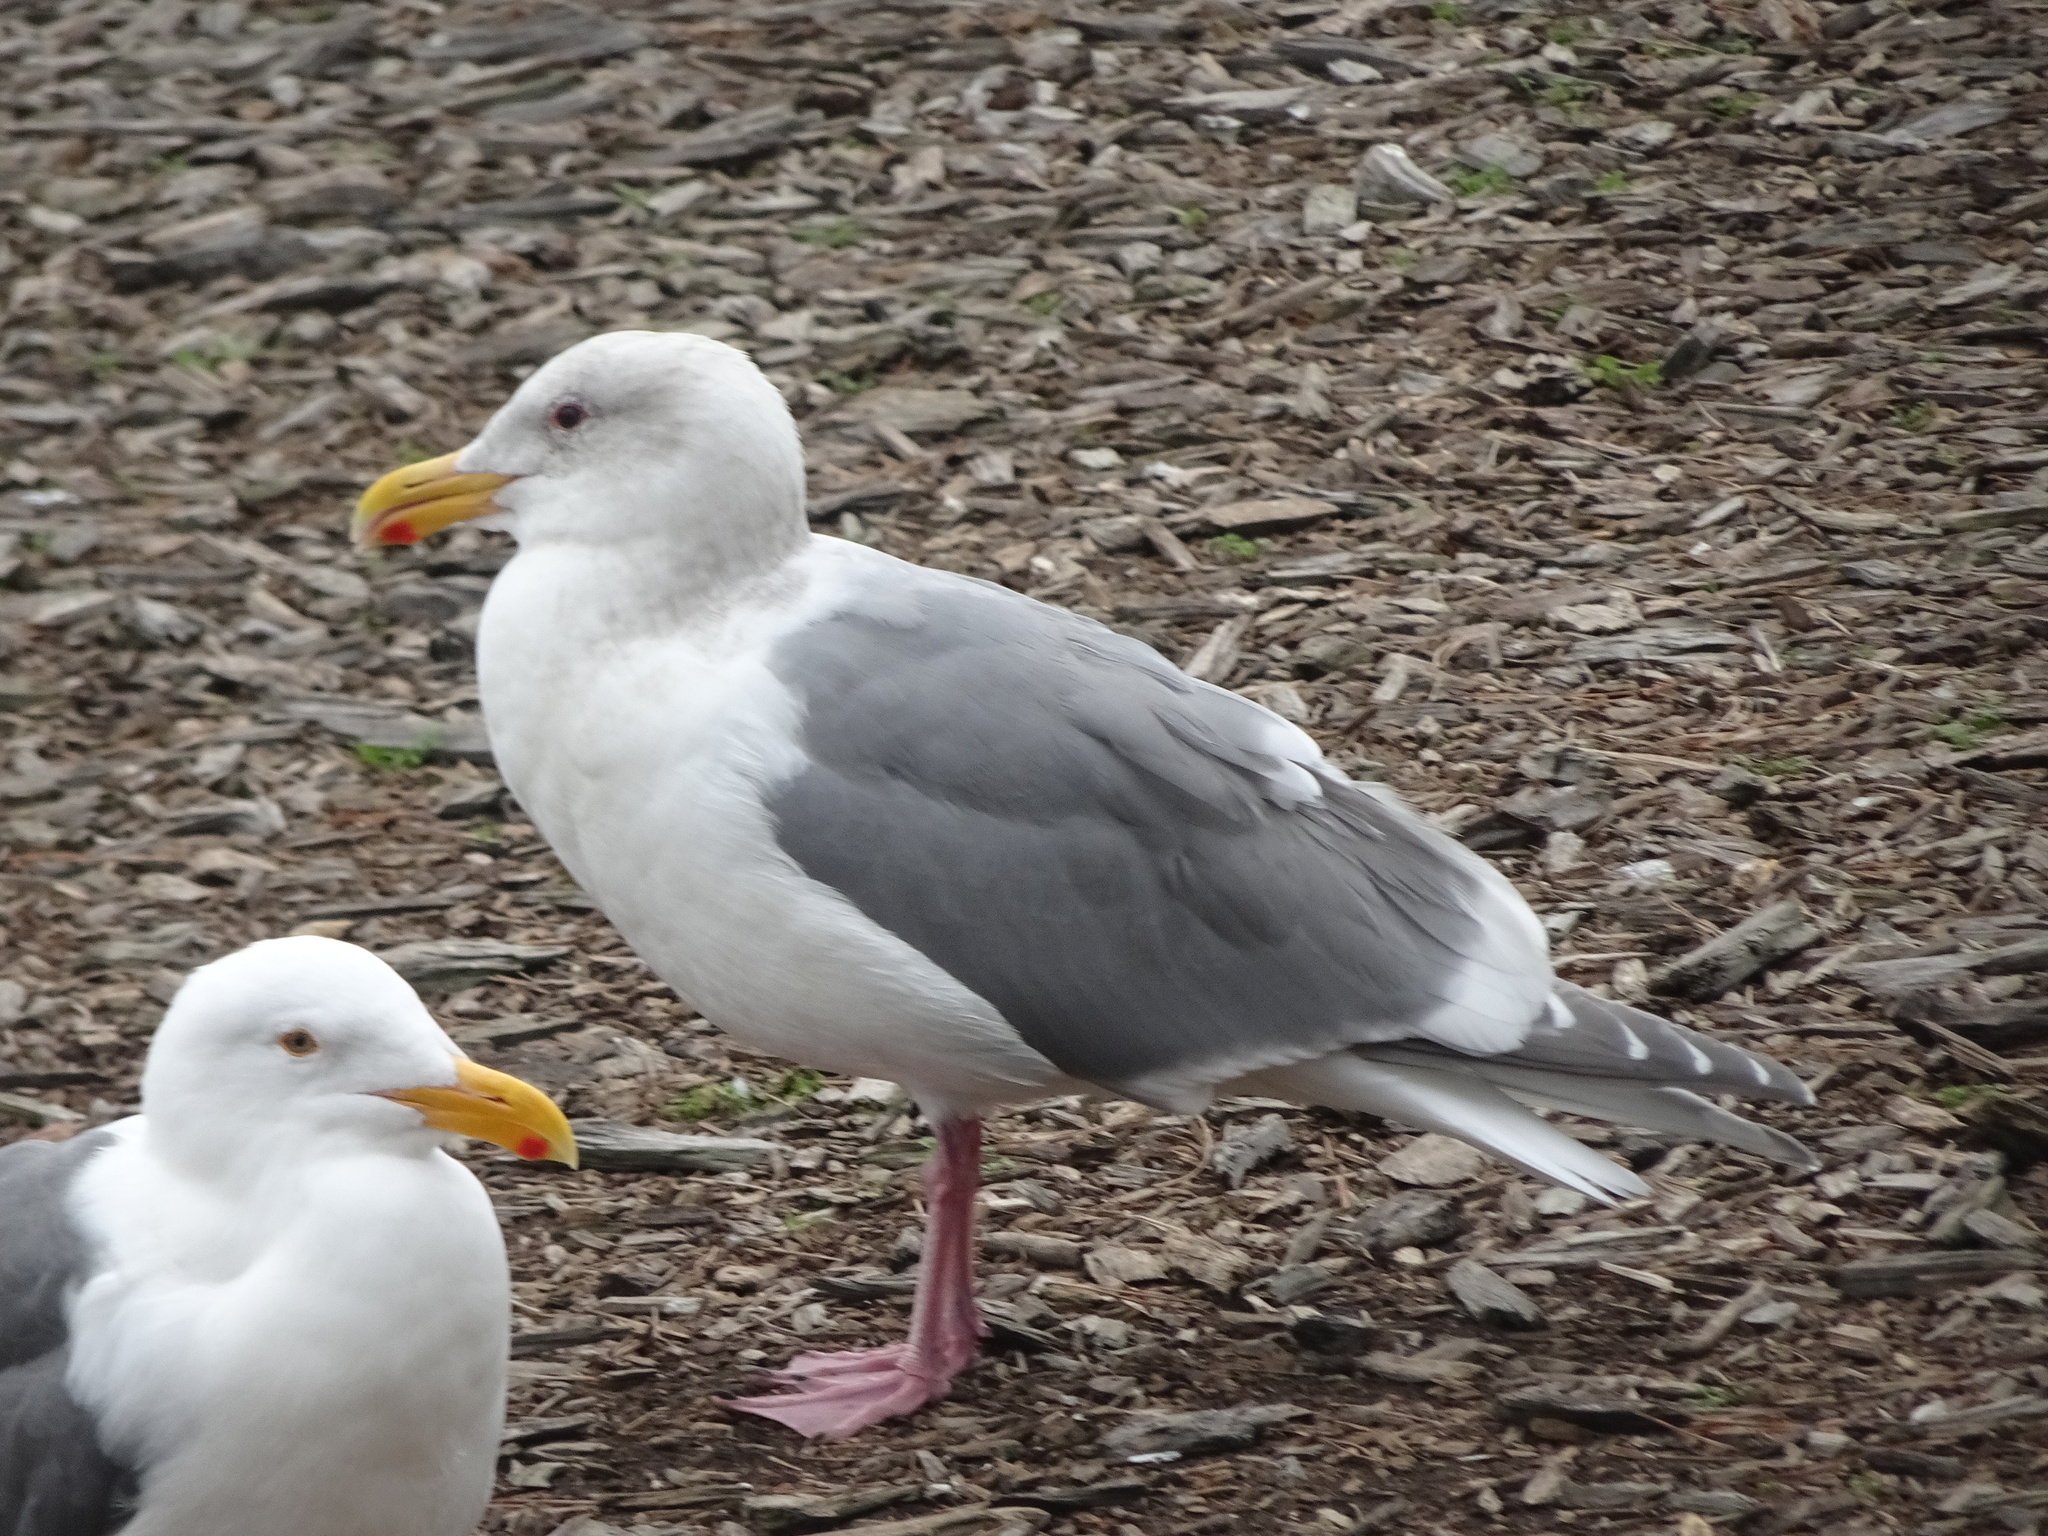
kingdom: Animalia
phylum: Chordata
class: Aves
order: Charadriiformes
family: Laridae
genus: Larus
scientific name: Larus glaucescens
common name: Glaucous-winged gull
